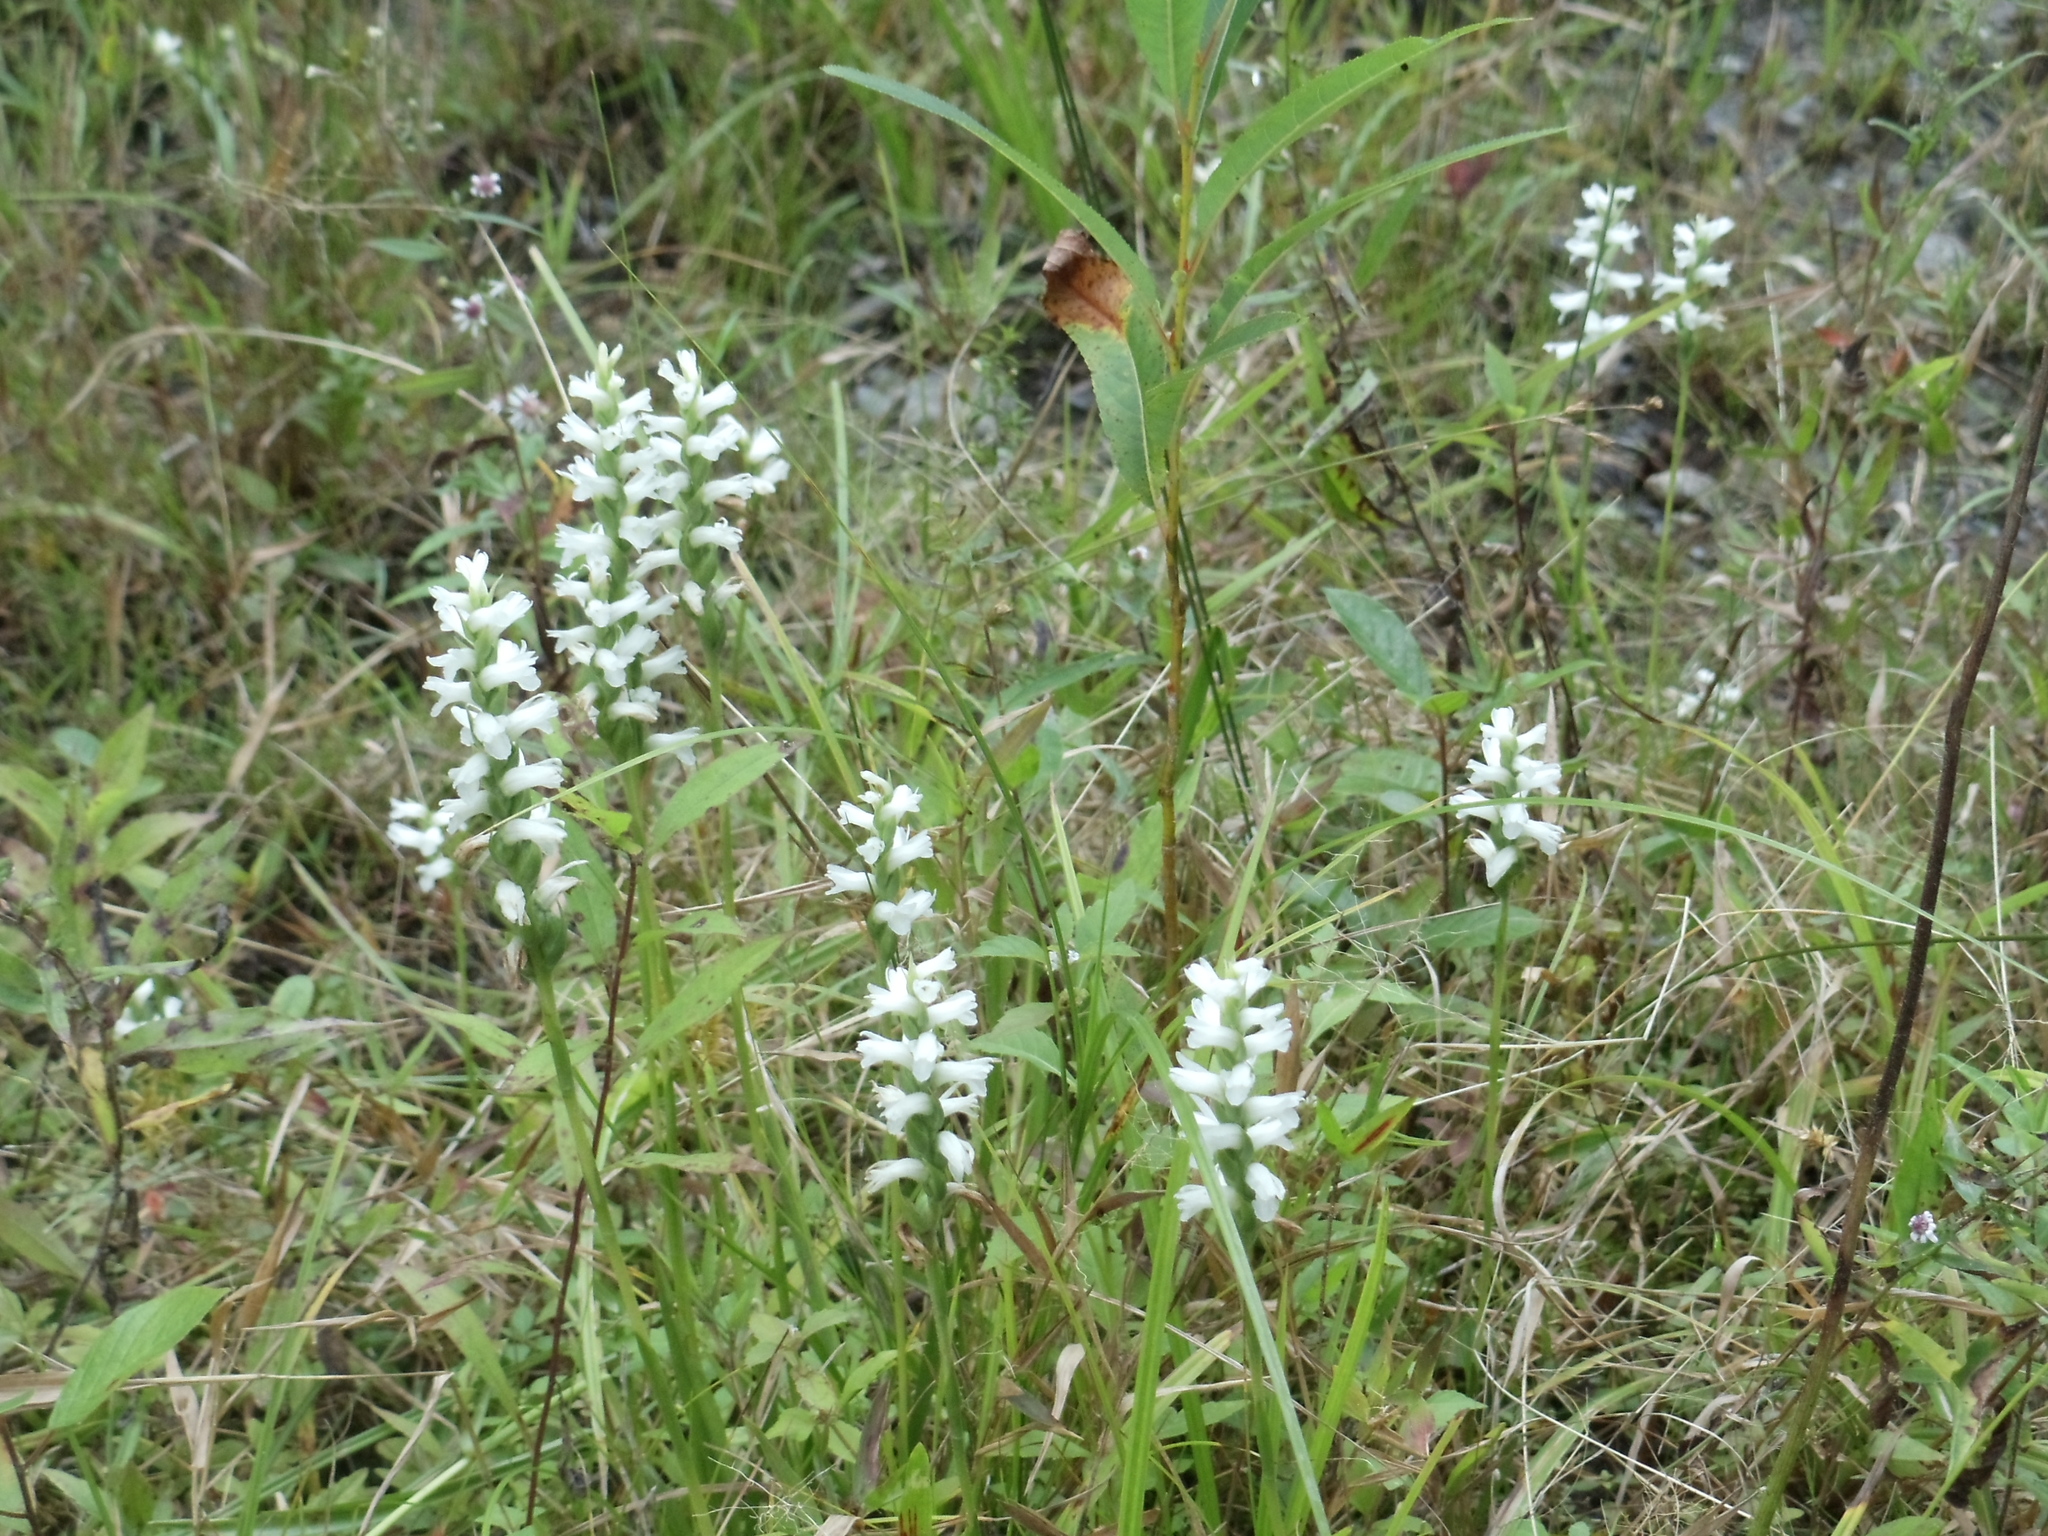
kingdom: Plantae
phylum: Tracheophyta
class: Liliopsida
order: Asparagales
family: Orchidaceae
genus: Spiranthes
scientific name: Spiranthes incurva
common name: Sphinx ladies'-tresses
